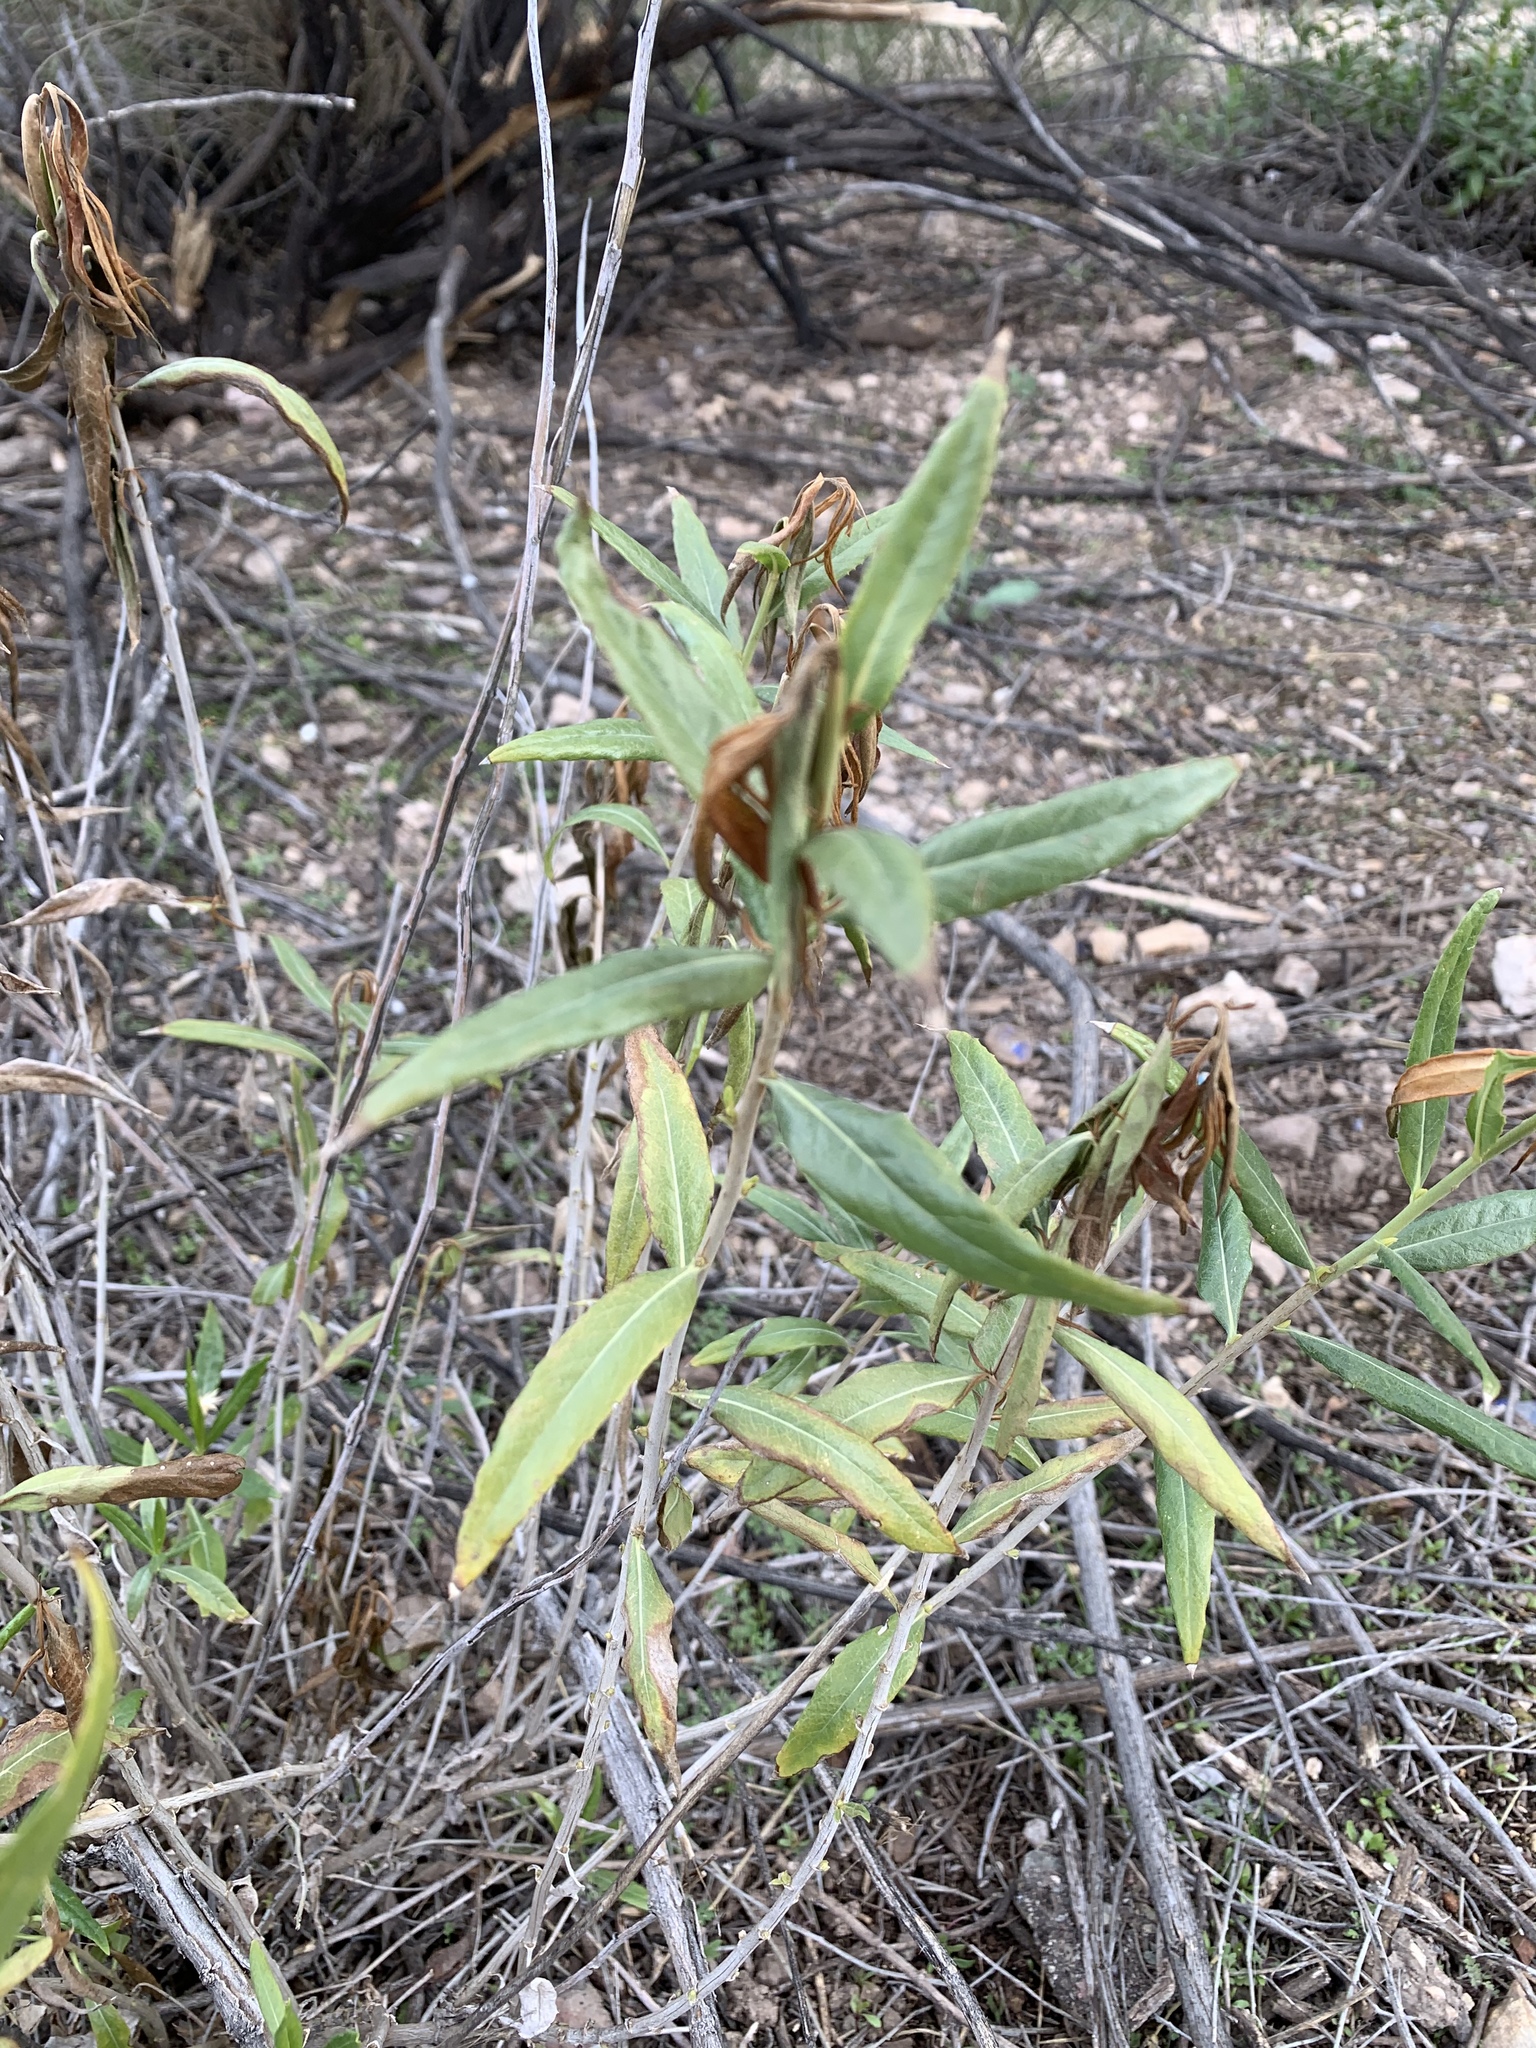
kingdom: Plantae
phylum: Tracheophyta
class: Magnoliopsida
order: Asterales
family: Asteraceae
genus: Trixis
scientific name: Trixis californica
